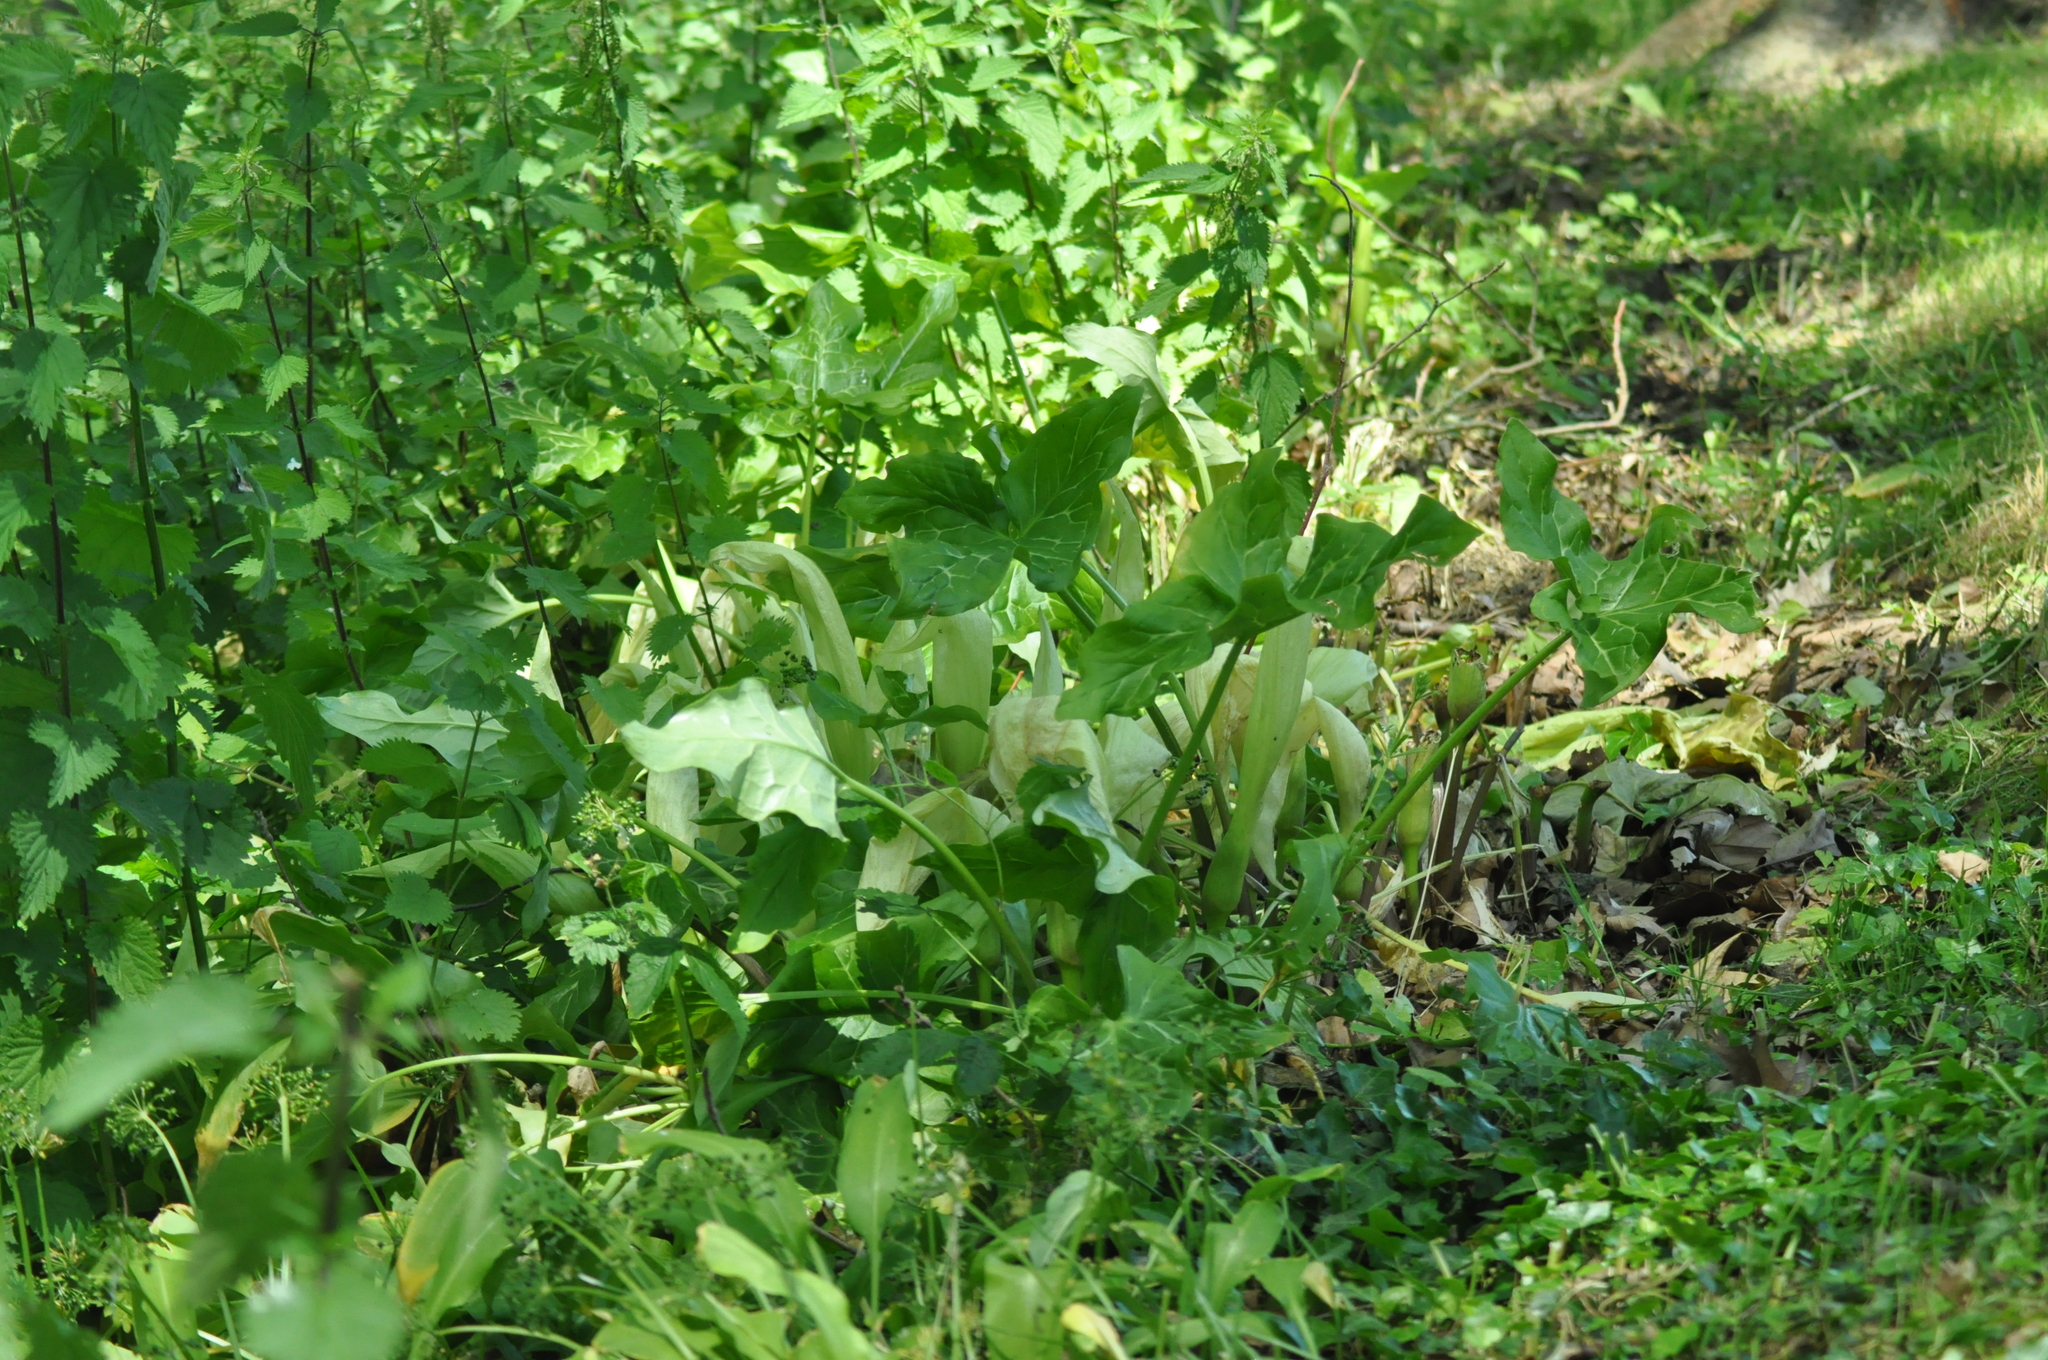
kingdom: Plantae
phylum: Tracheophyta
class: Liliopsida
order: Alismatales
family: Araceae
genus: Arum
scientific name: Arum italicum
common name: Italian lords-and-ladies
